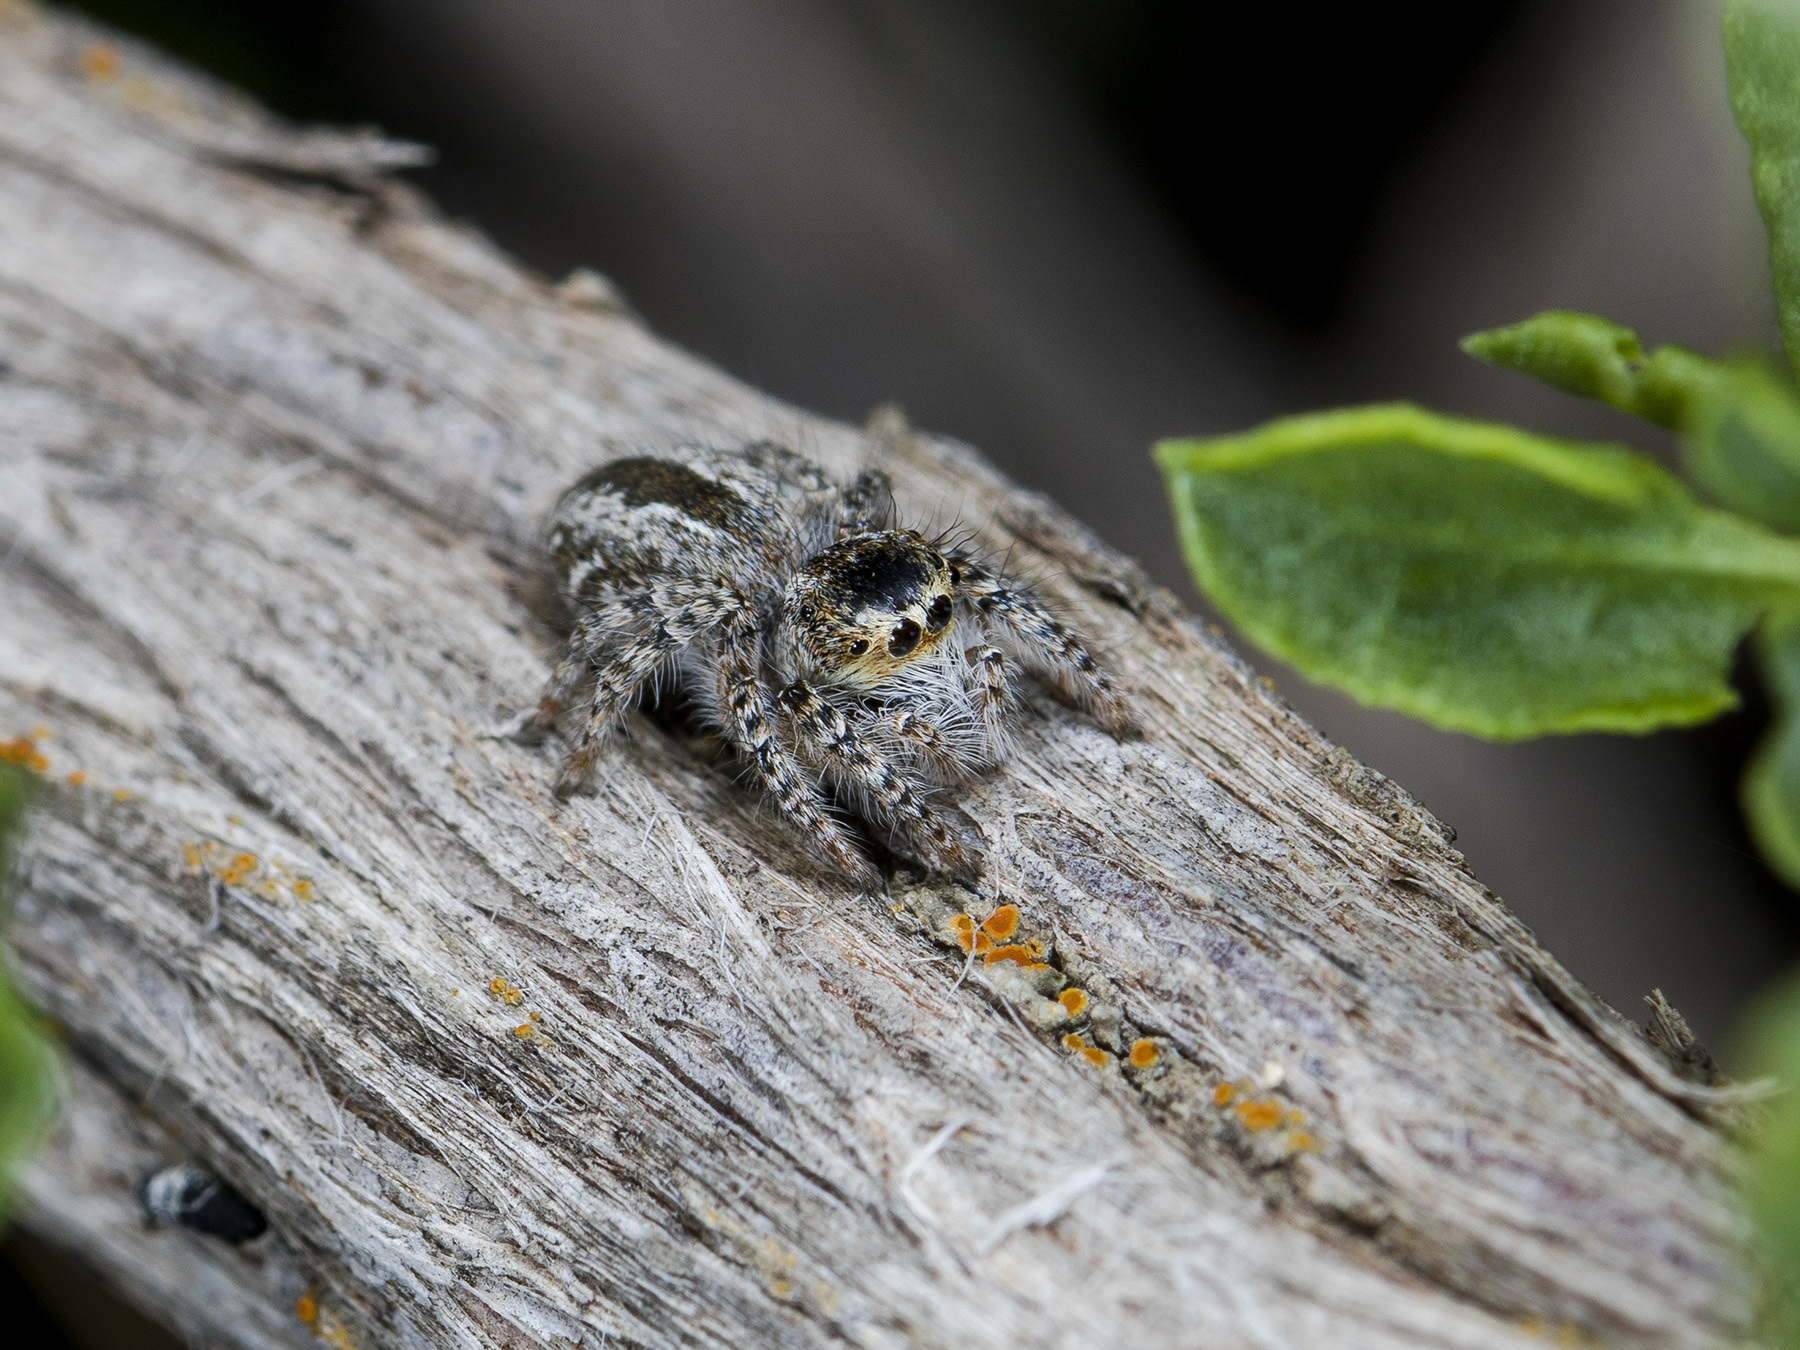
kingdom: Animalia
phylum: Arthropoda
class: Arachnida
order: Araneae
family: Salticidae
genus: Mogrus
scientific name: Mogrus larisae
